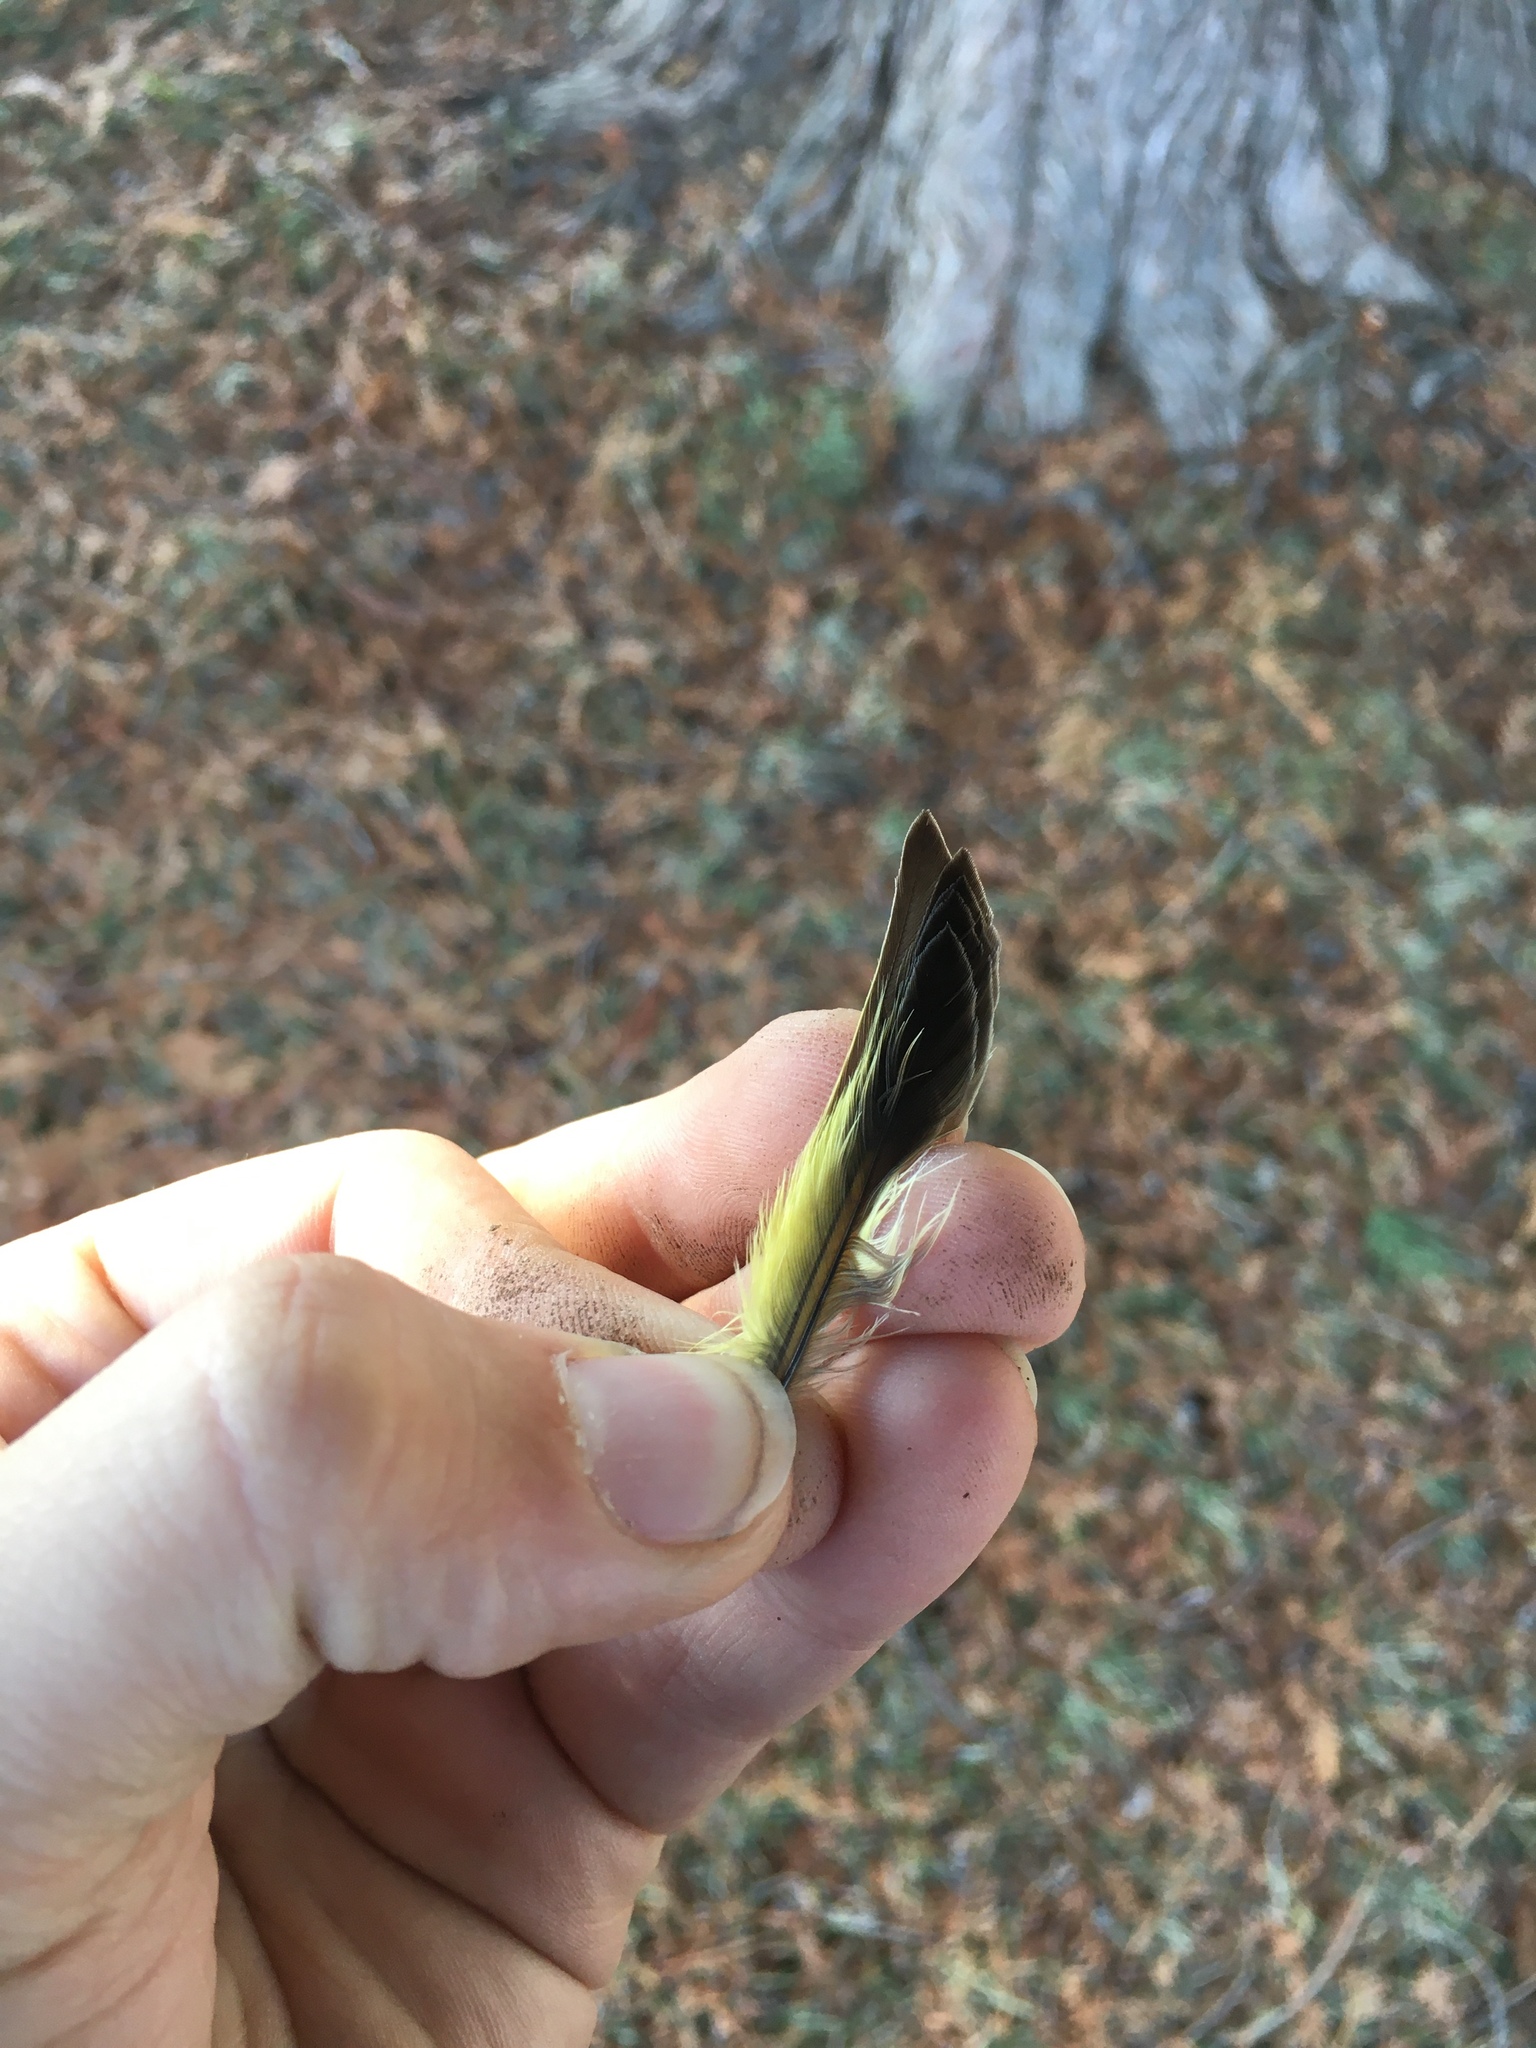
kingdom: Animalia
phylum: Chordata
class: Aves
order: Passeriformes
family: Fringillidae
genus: Spinus
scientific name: Spinus pinus
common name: Pine siskin
